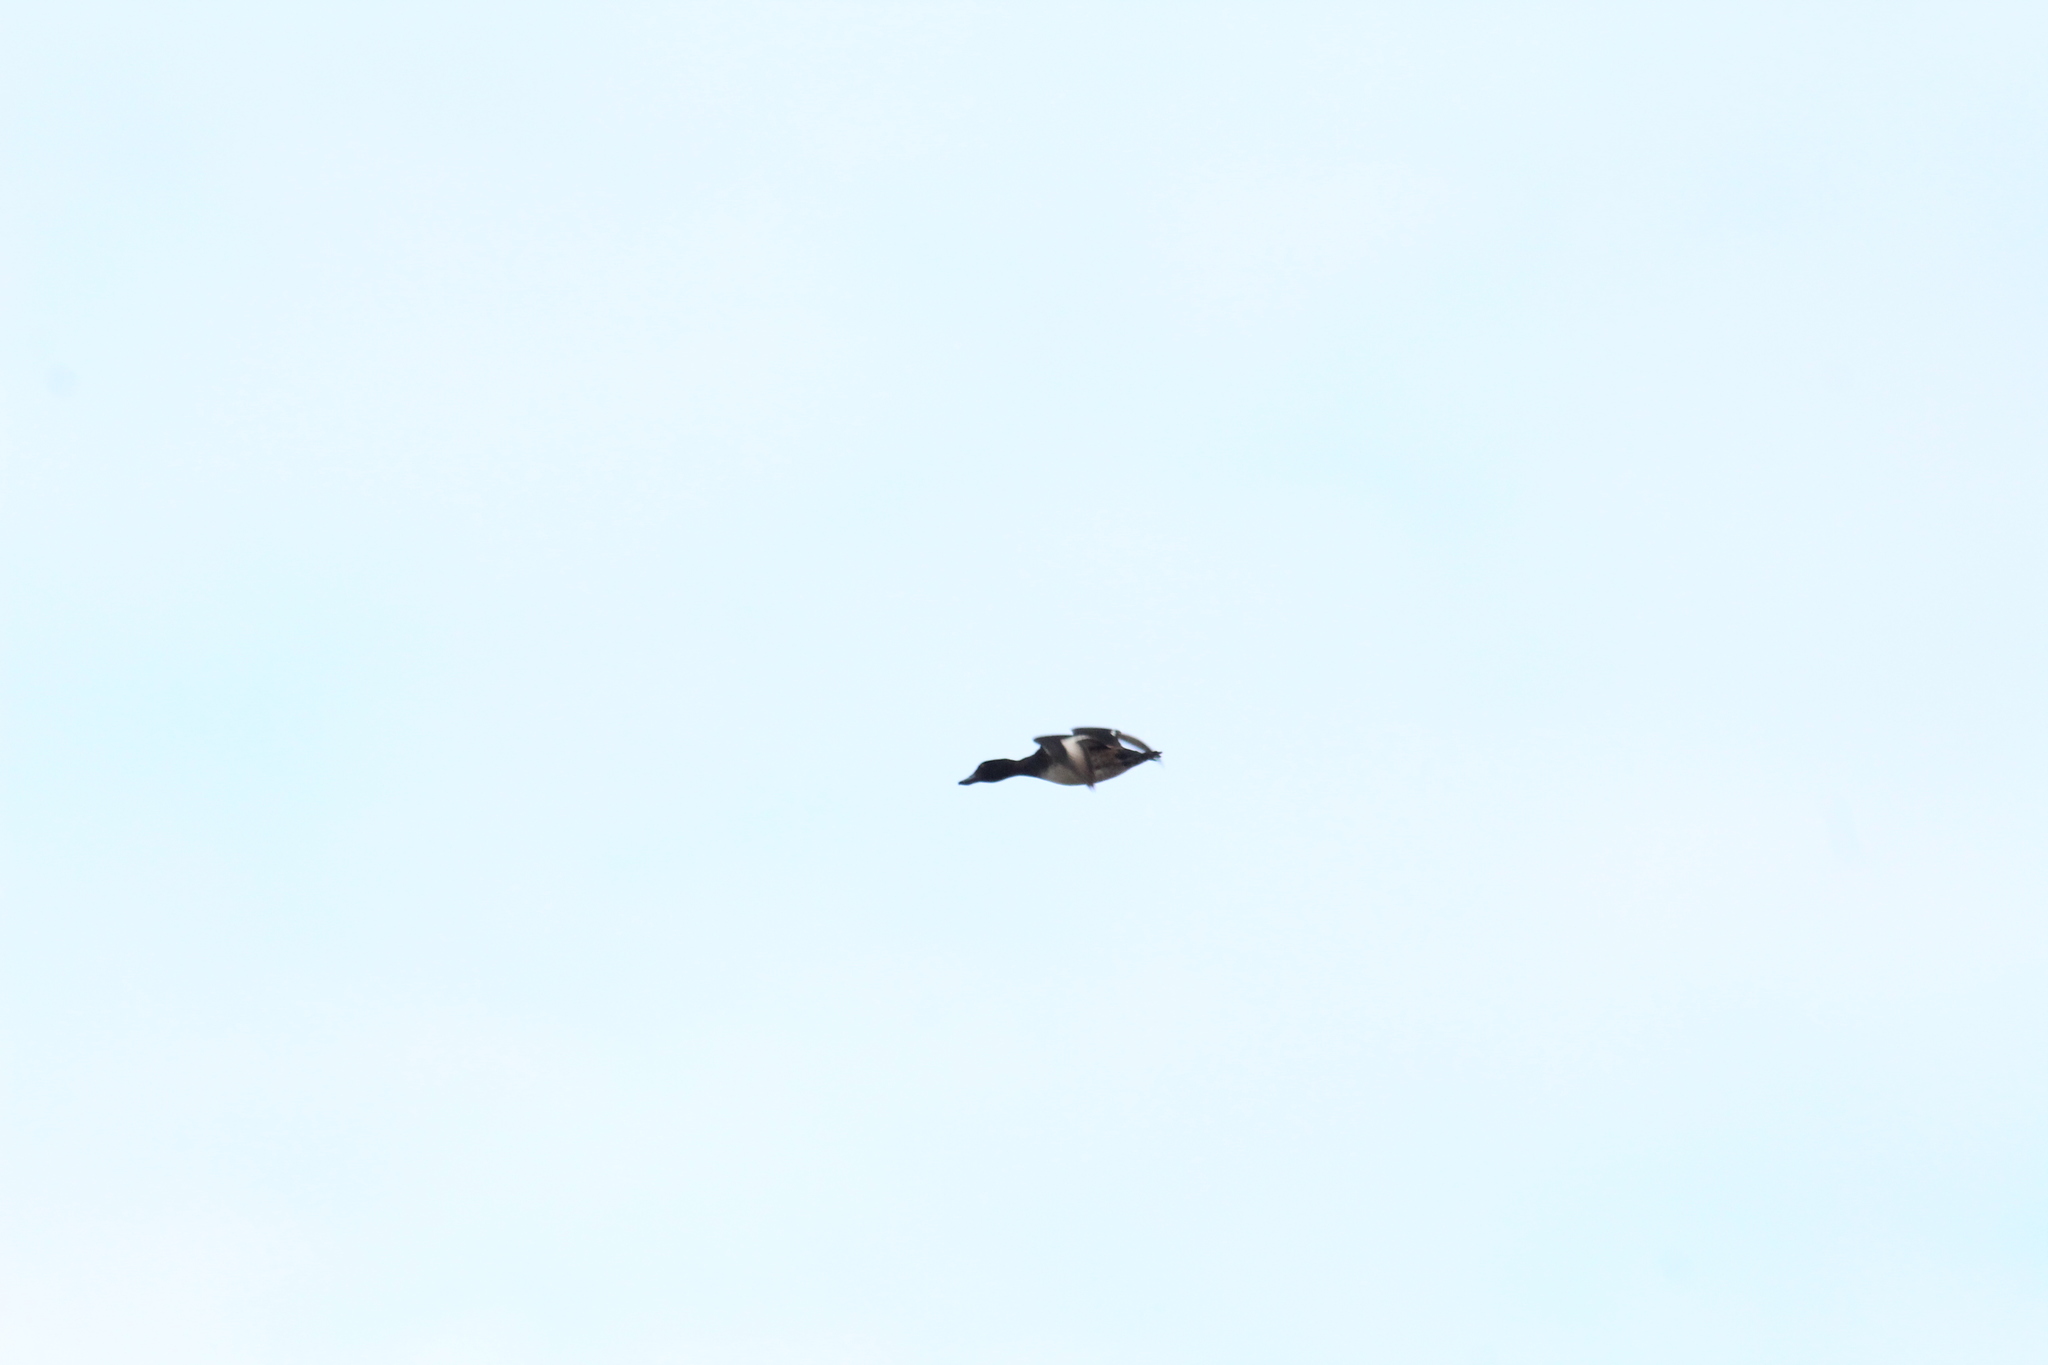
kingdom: Animalia
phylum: Chordata
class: Aves
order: Anseriformes
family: Anatidae
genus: Aythya
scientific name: Aythya fuligula
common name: Tufted duck
